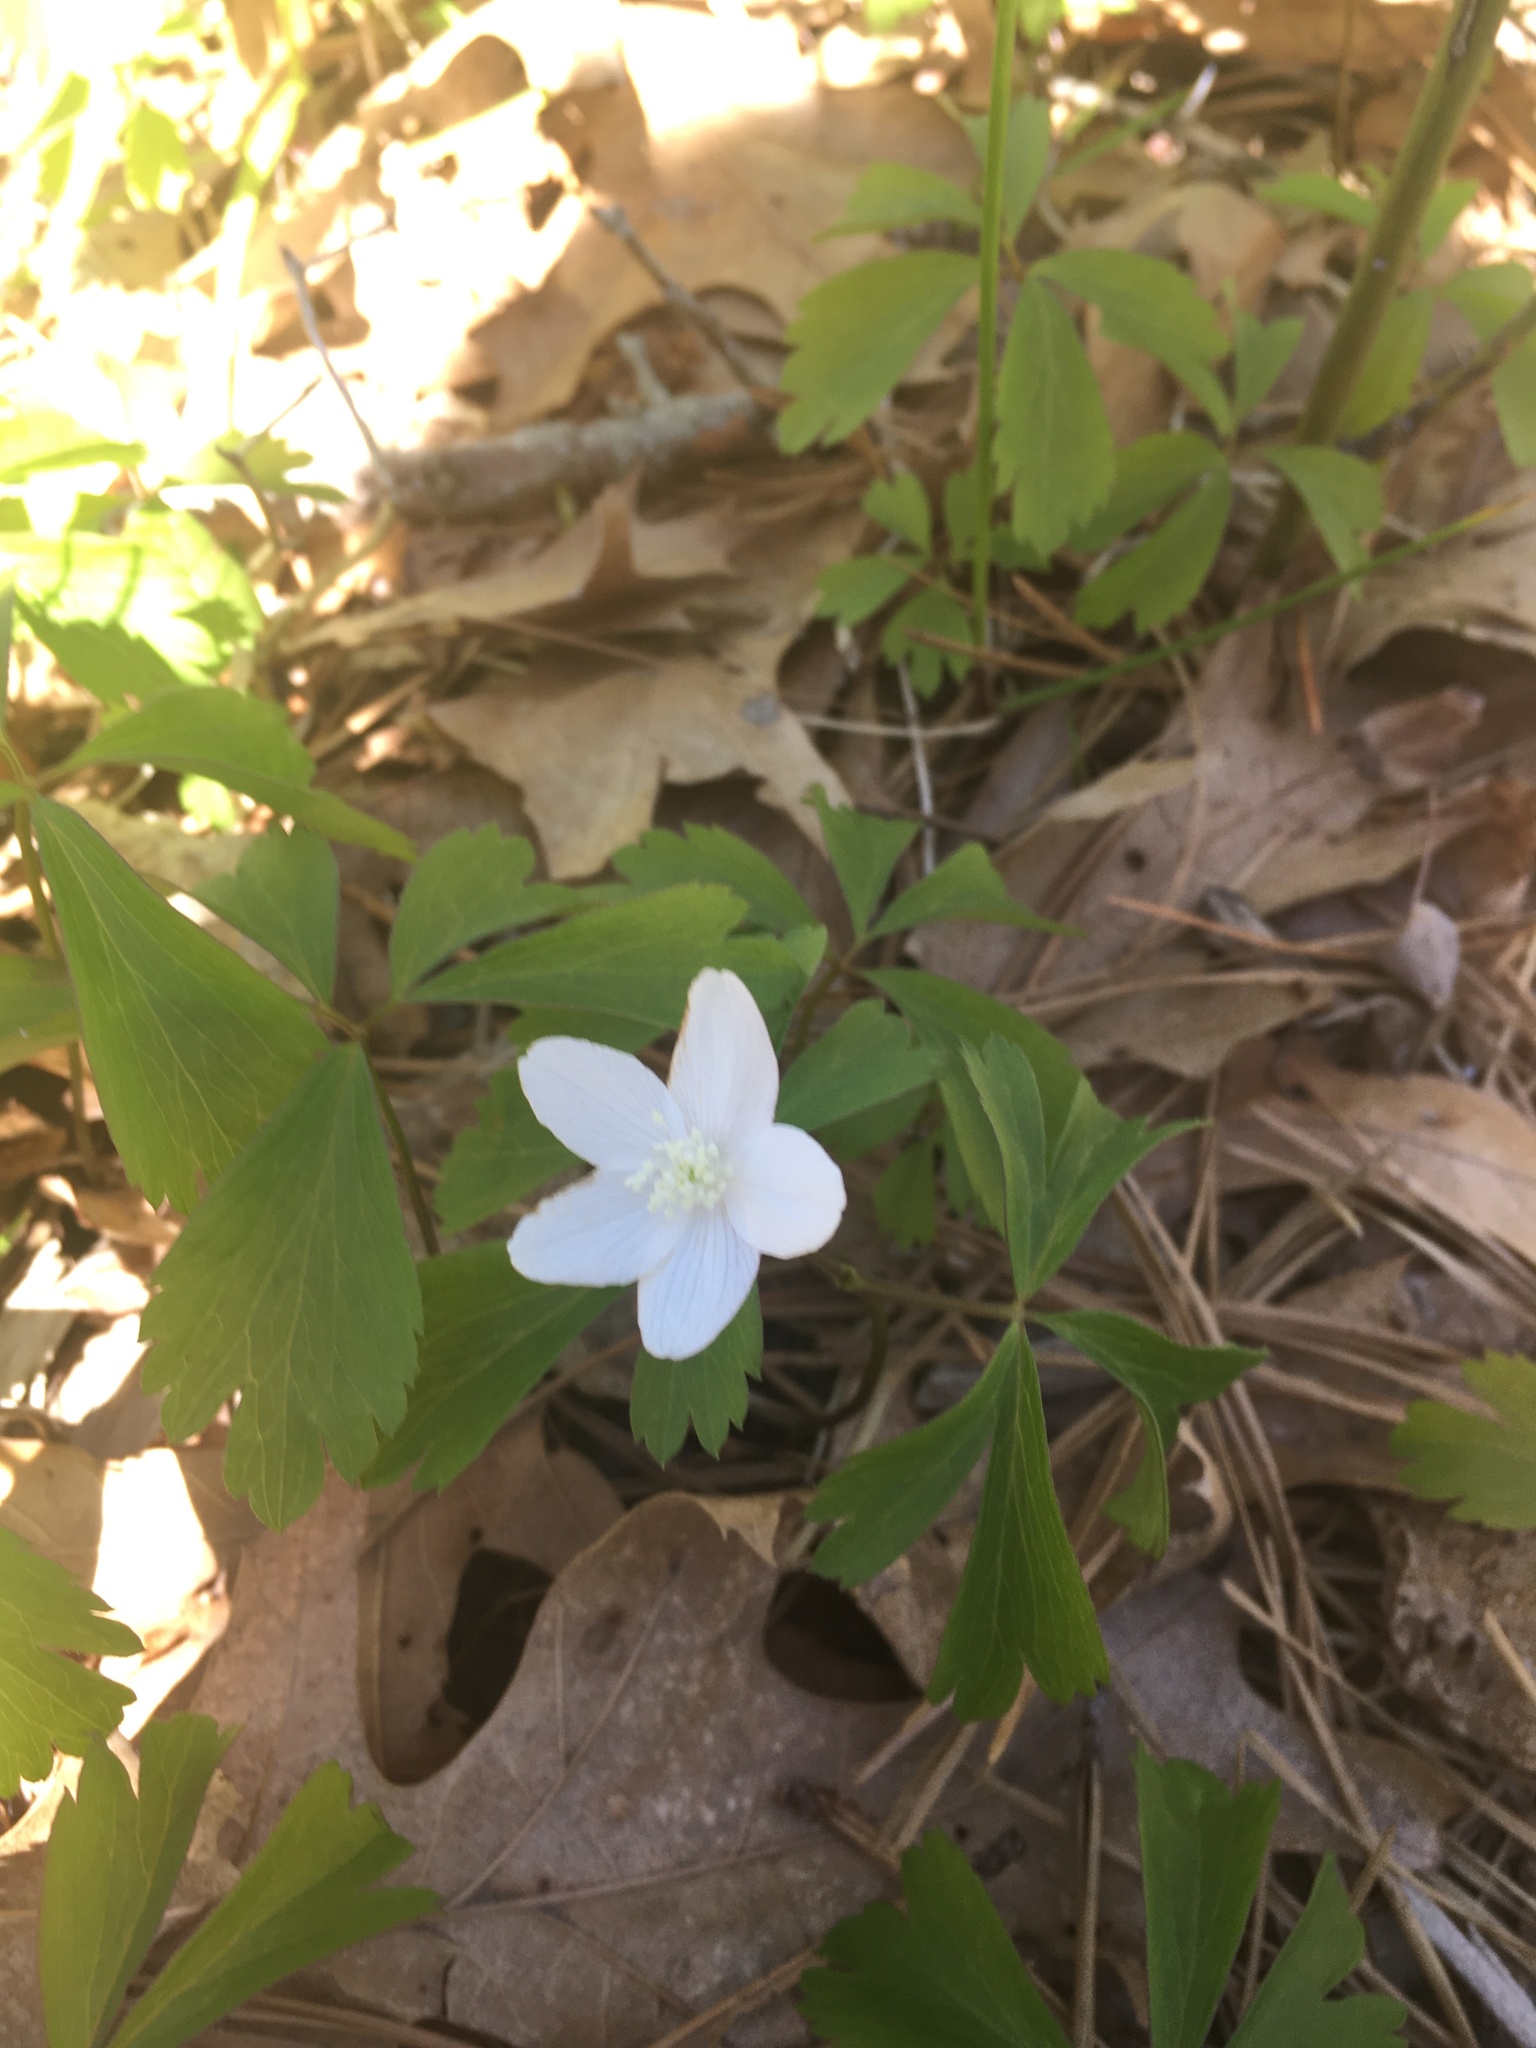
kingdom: Plantae
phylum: Tracheophyta
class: Magnoliopsida
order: Ranunculales
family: Ranunculaceae
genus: Anemone
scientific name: Anemone quinquefolia
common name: Wood anemone
